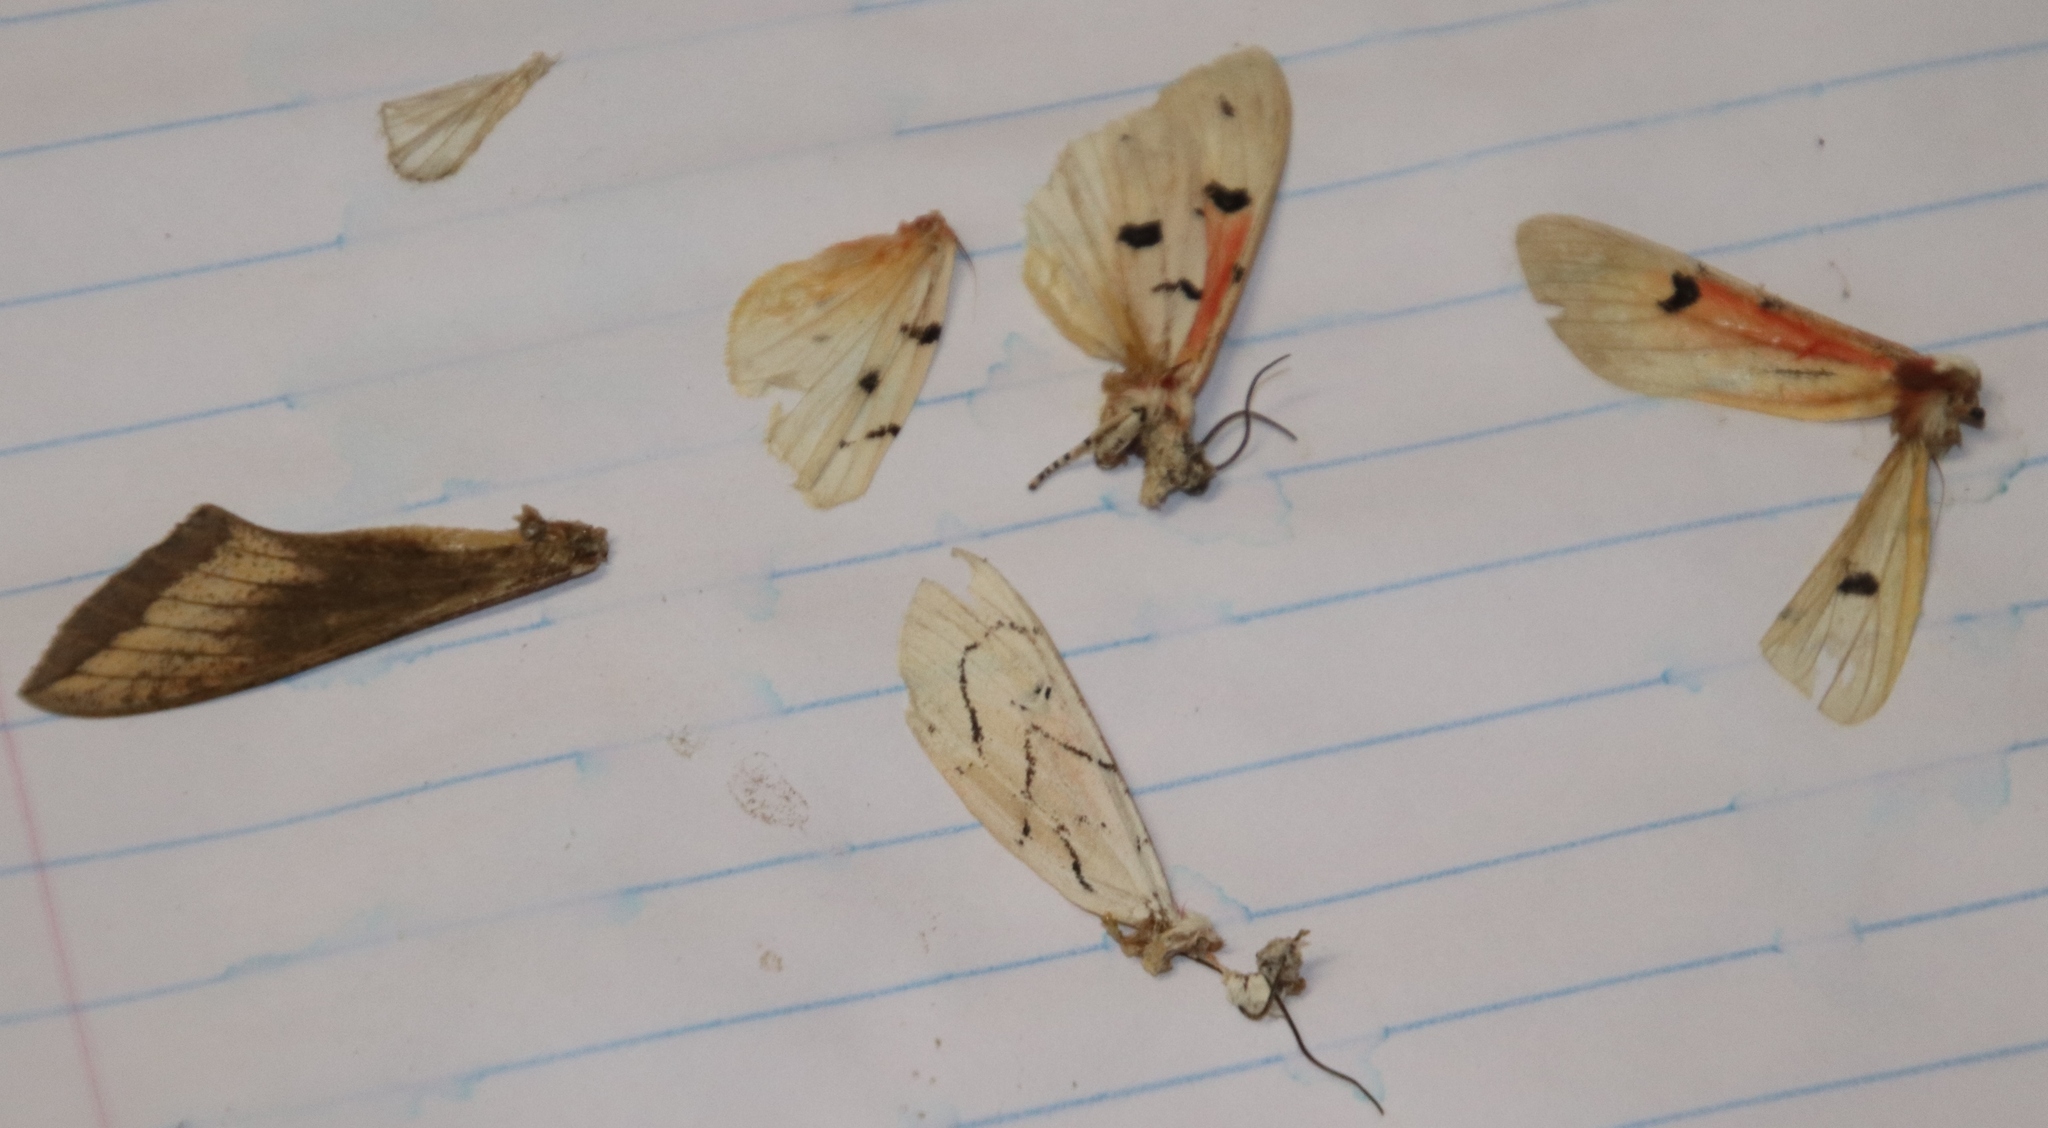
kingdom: Animalia
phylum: Arthropoda
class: Insecta
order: Lepidoptera
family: Erebidae
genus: Rhodogastria
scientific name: Rhodogastria amasis
